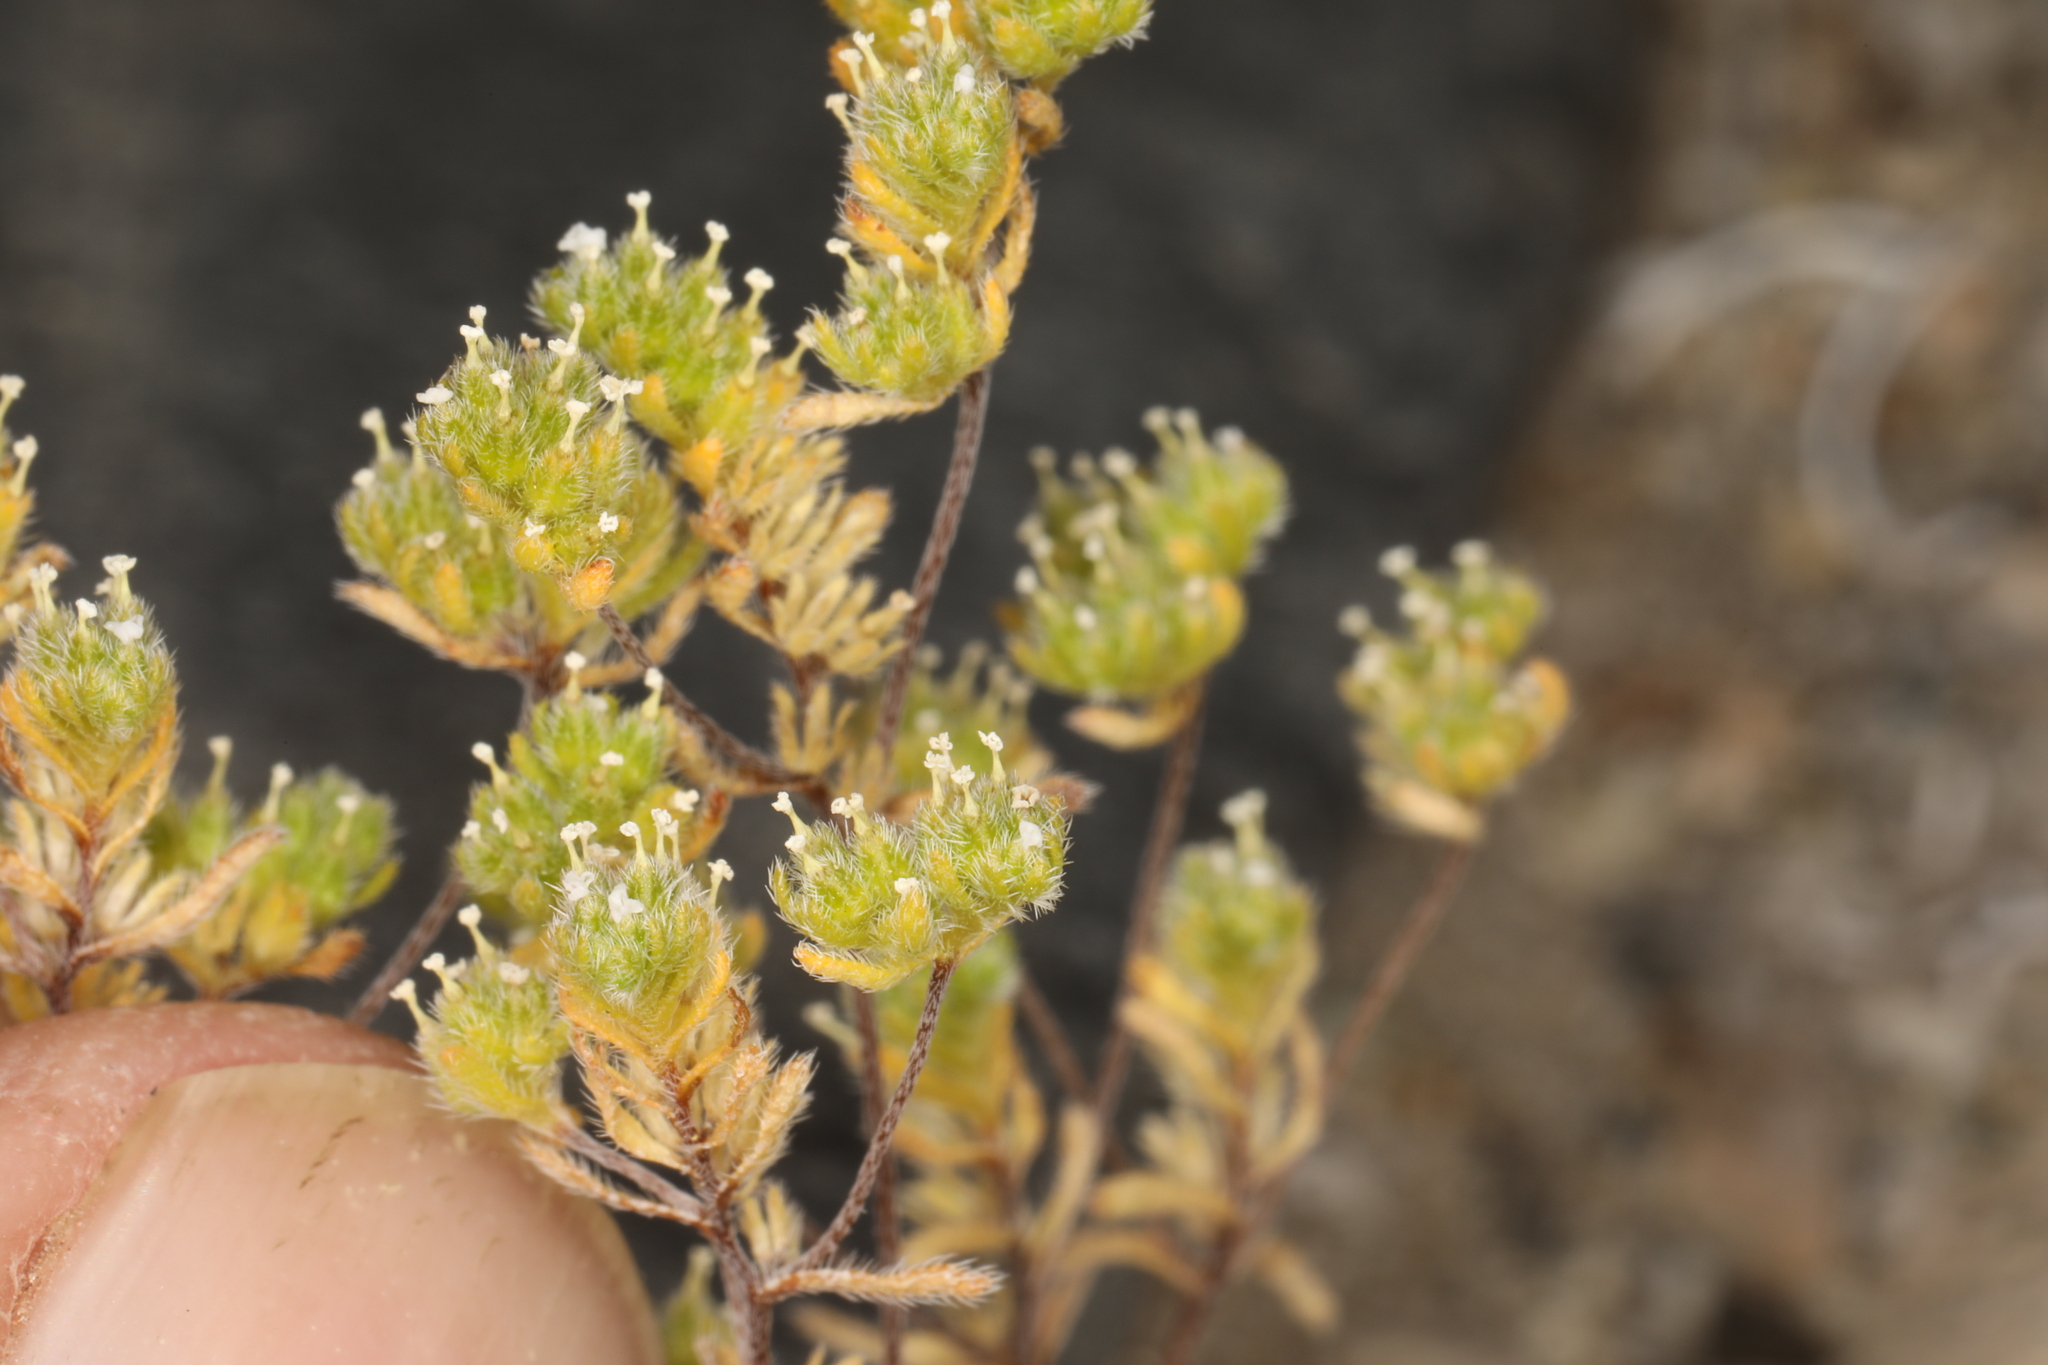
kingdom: Plantae
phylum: Tracheophyta
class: Magnoliopsida
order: Boraginales
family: Boraginaceae
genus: Eremocarya
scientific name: Eremocarya micrantha
